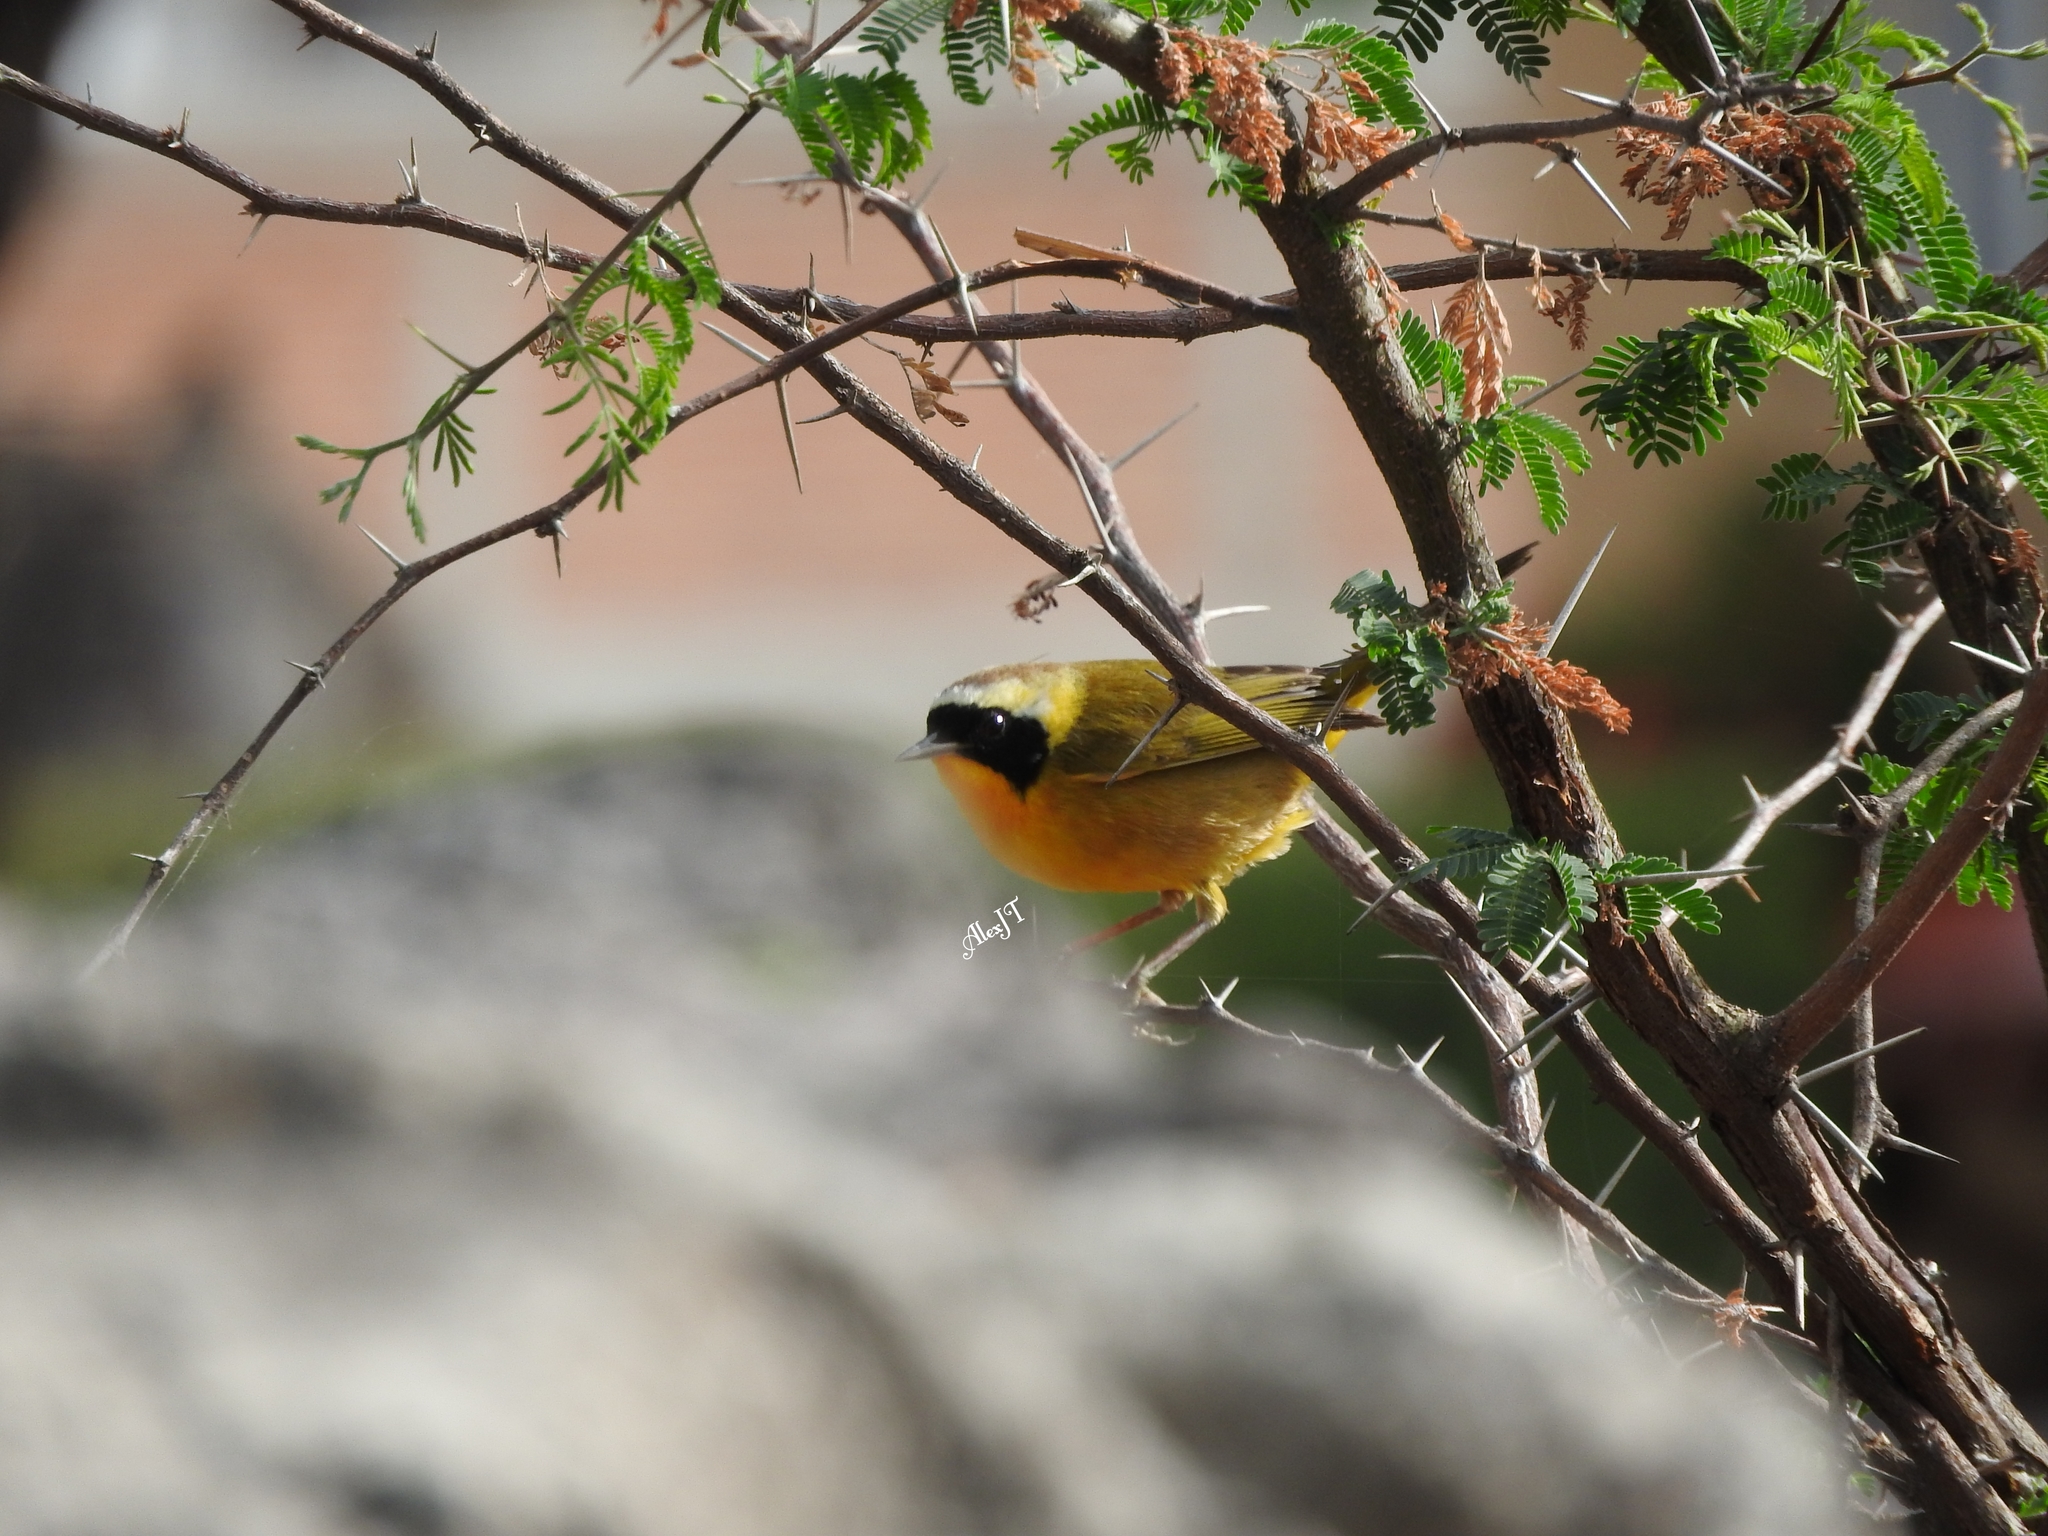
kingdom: Animalia
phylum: Chordata
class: Aves
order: Passeriformes
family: Parulidae
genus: Geothlypis
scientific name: Geothlypis trichas
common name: Common yellowthroat
